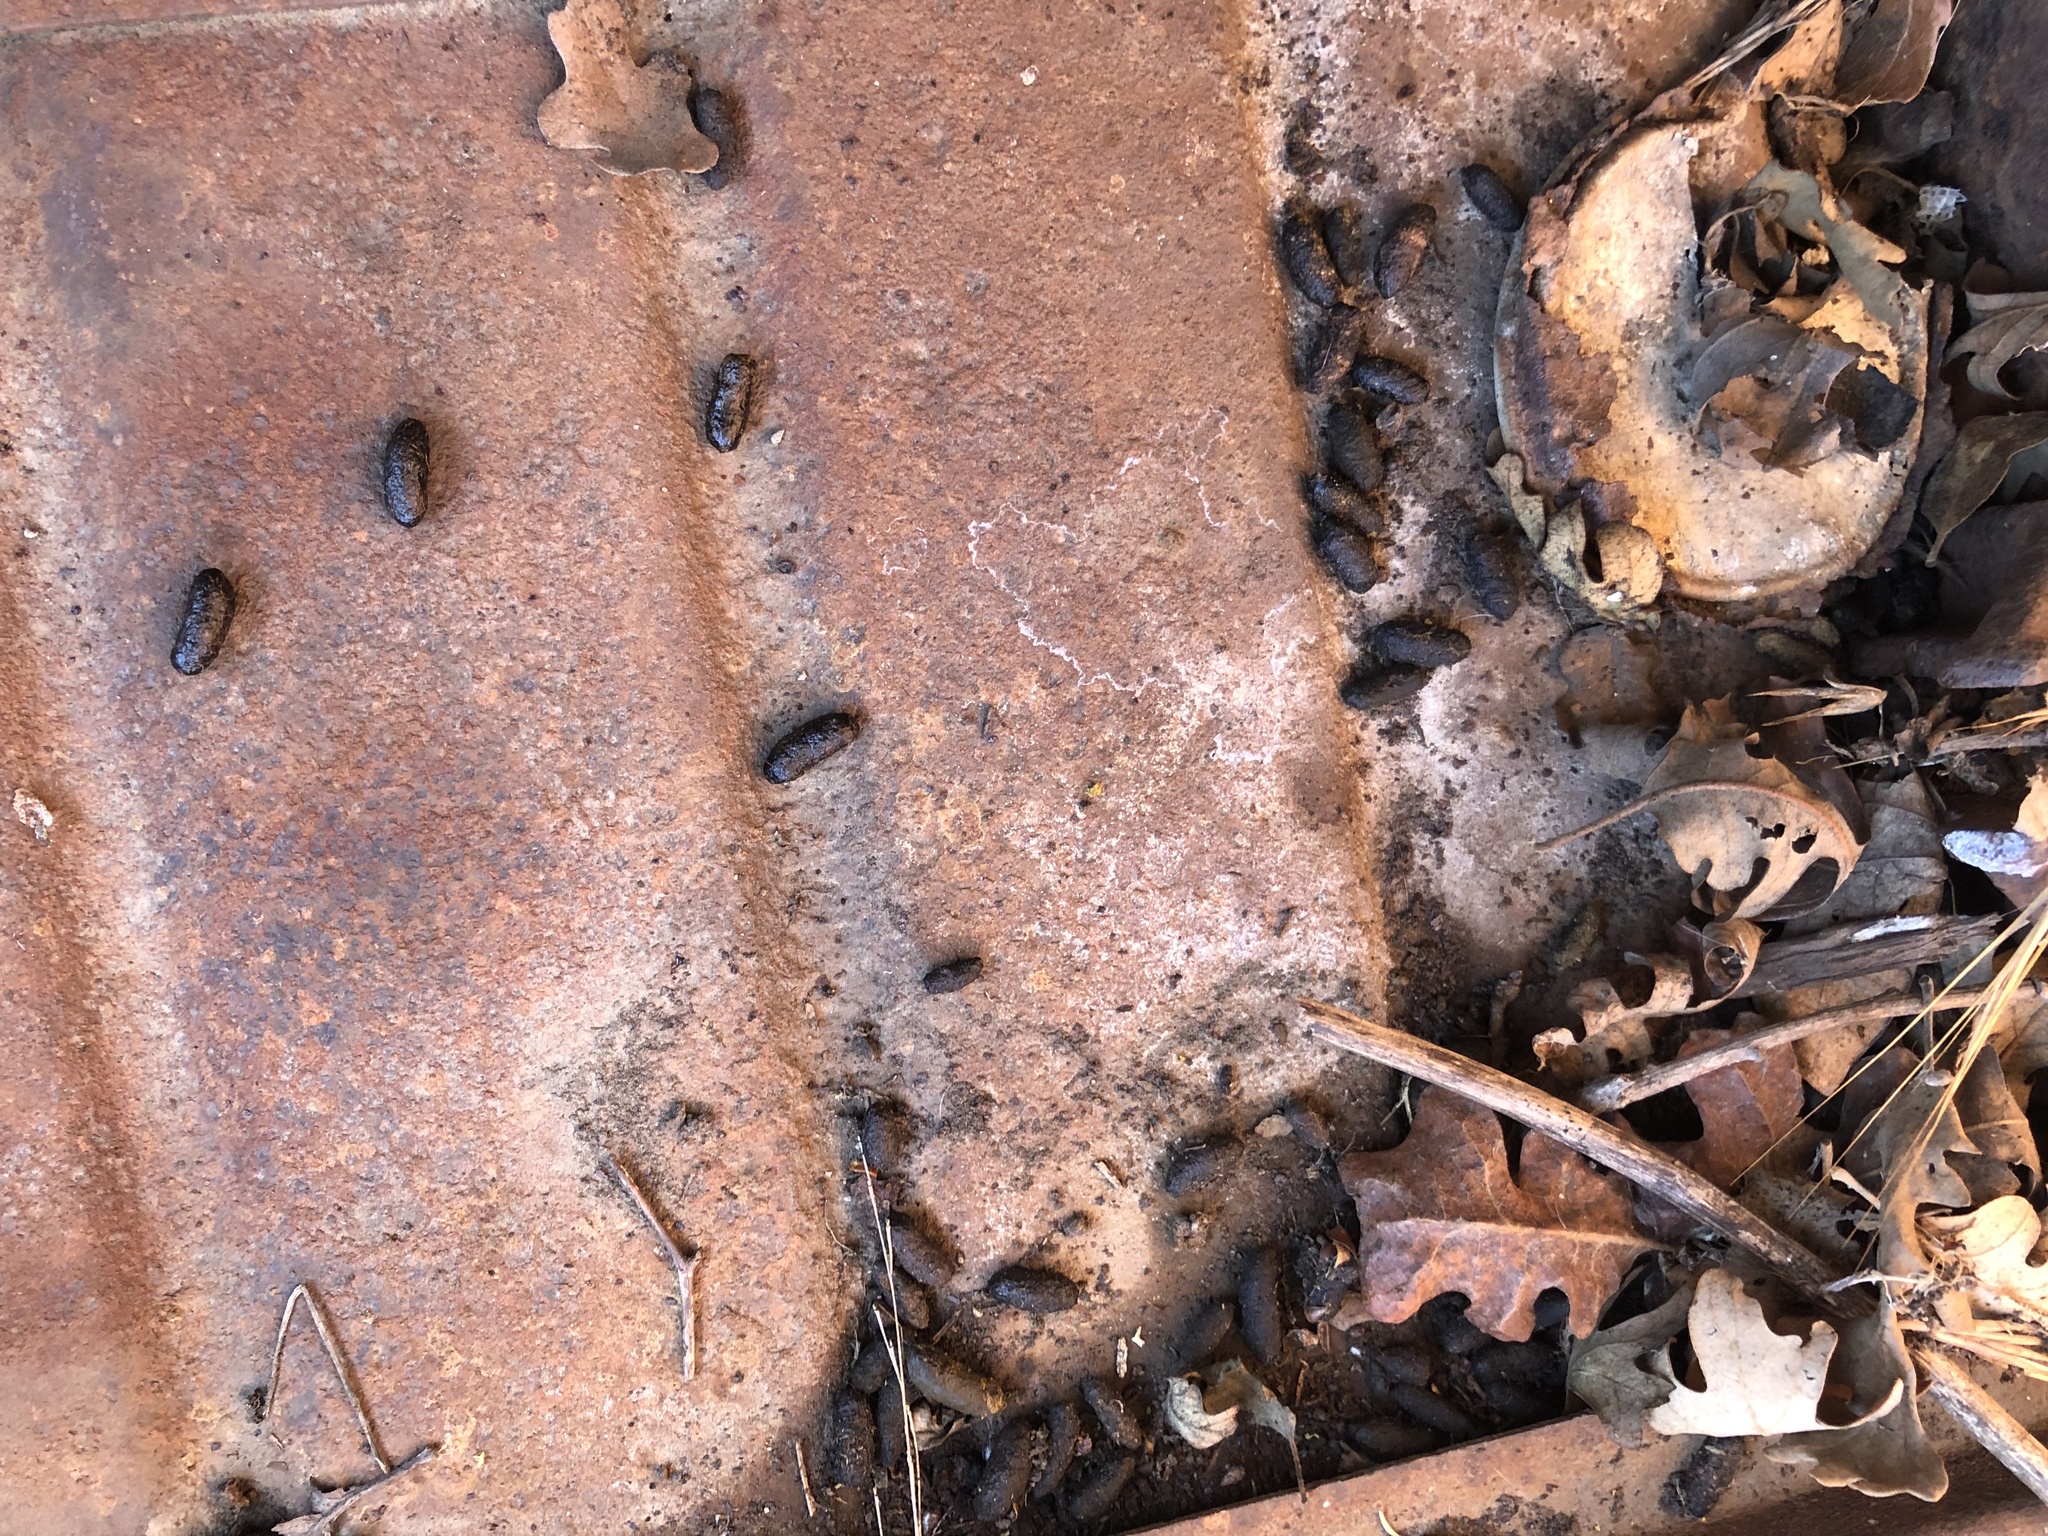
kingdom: Animalia
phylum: Chordata
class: Mammalia
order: Rodentia
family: Muridae
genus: Rattus
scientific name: Rattus norvegicus
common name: Brown rat
